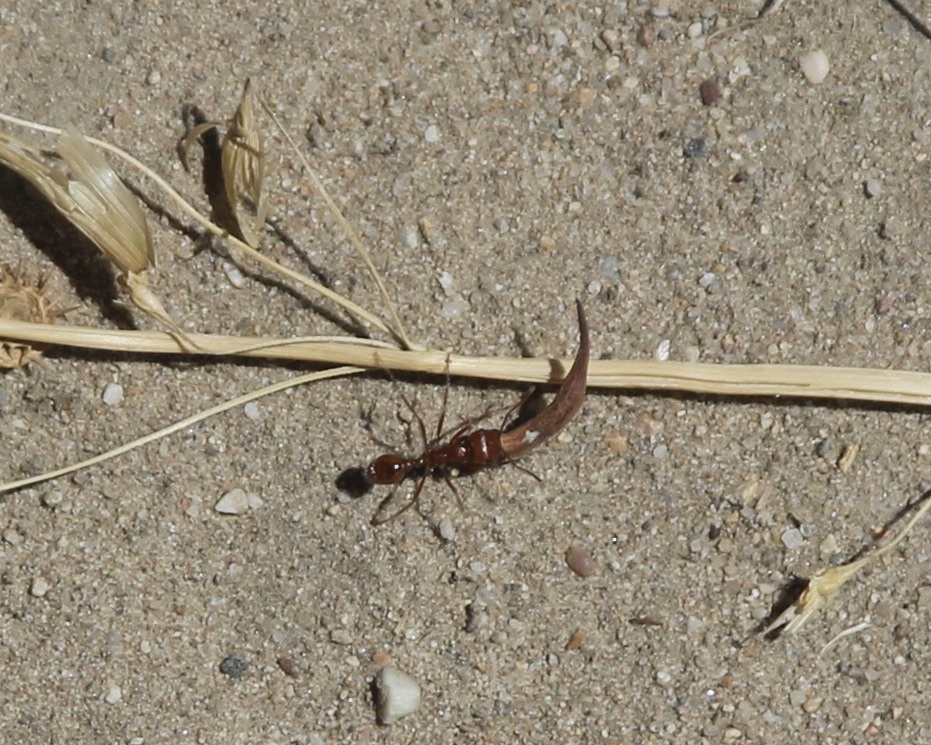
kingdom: Animalia
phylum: Arthropoda
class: Insecta
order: Hymenoptera
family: Formicidae
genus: Pogonomyrmex
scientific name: Pogonomyrmex californicus
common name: California harvester ant
